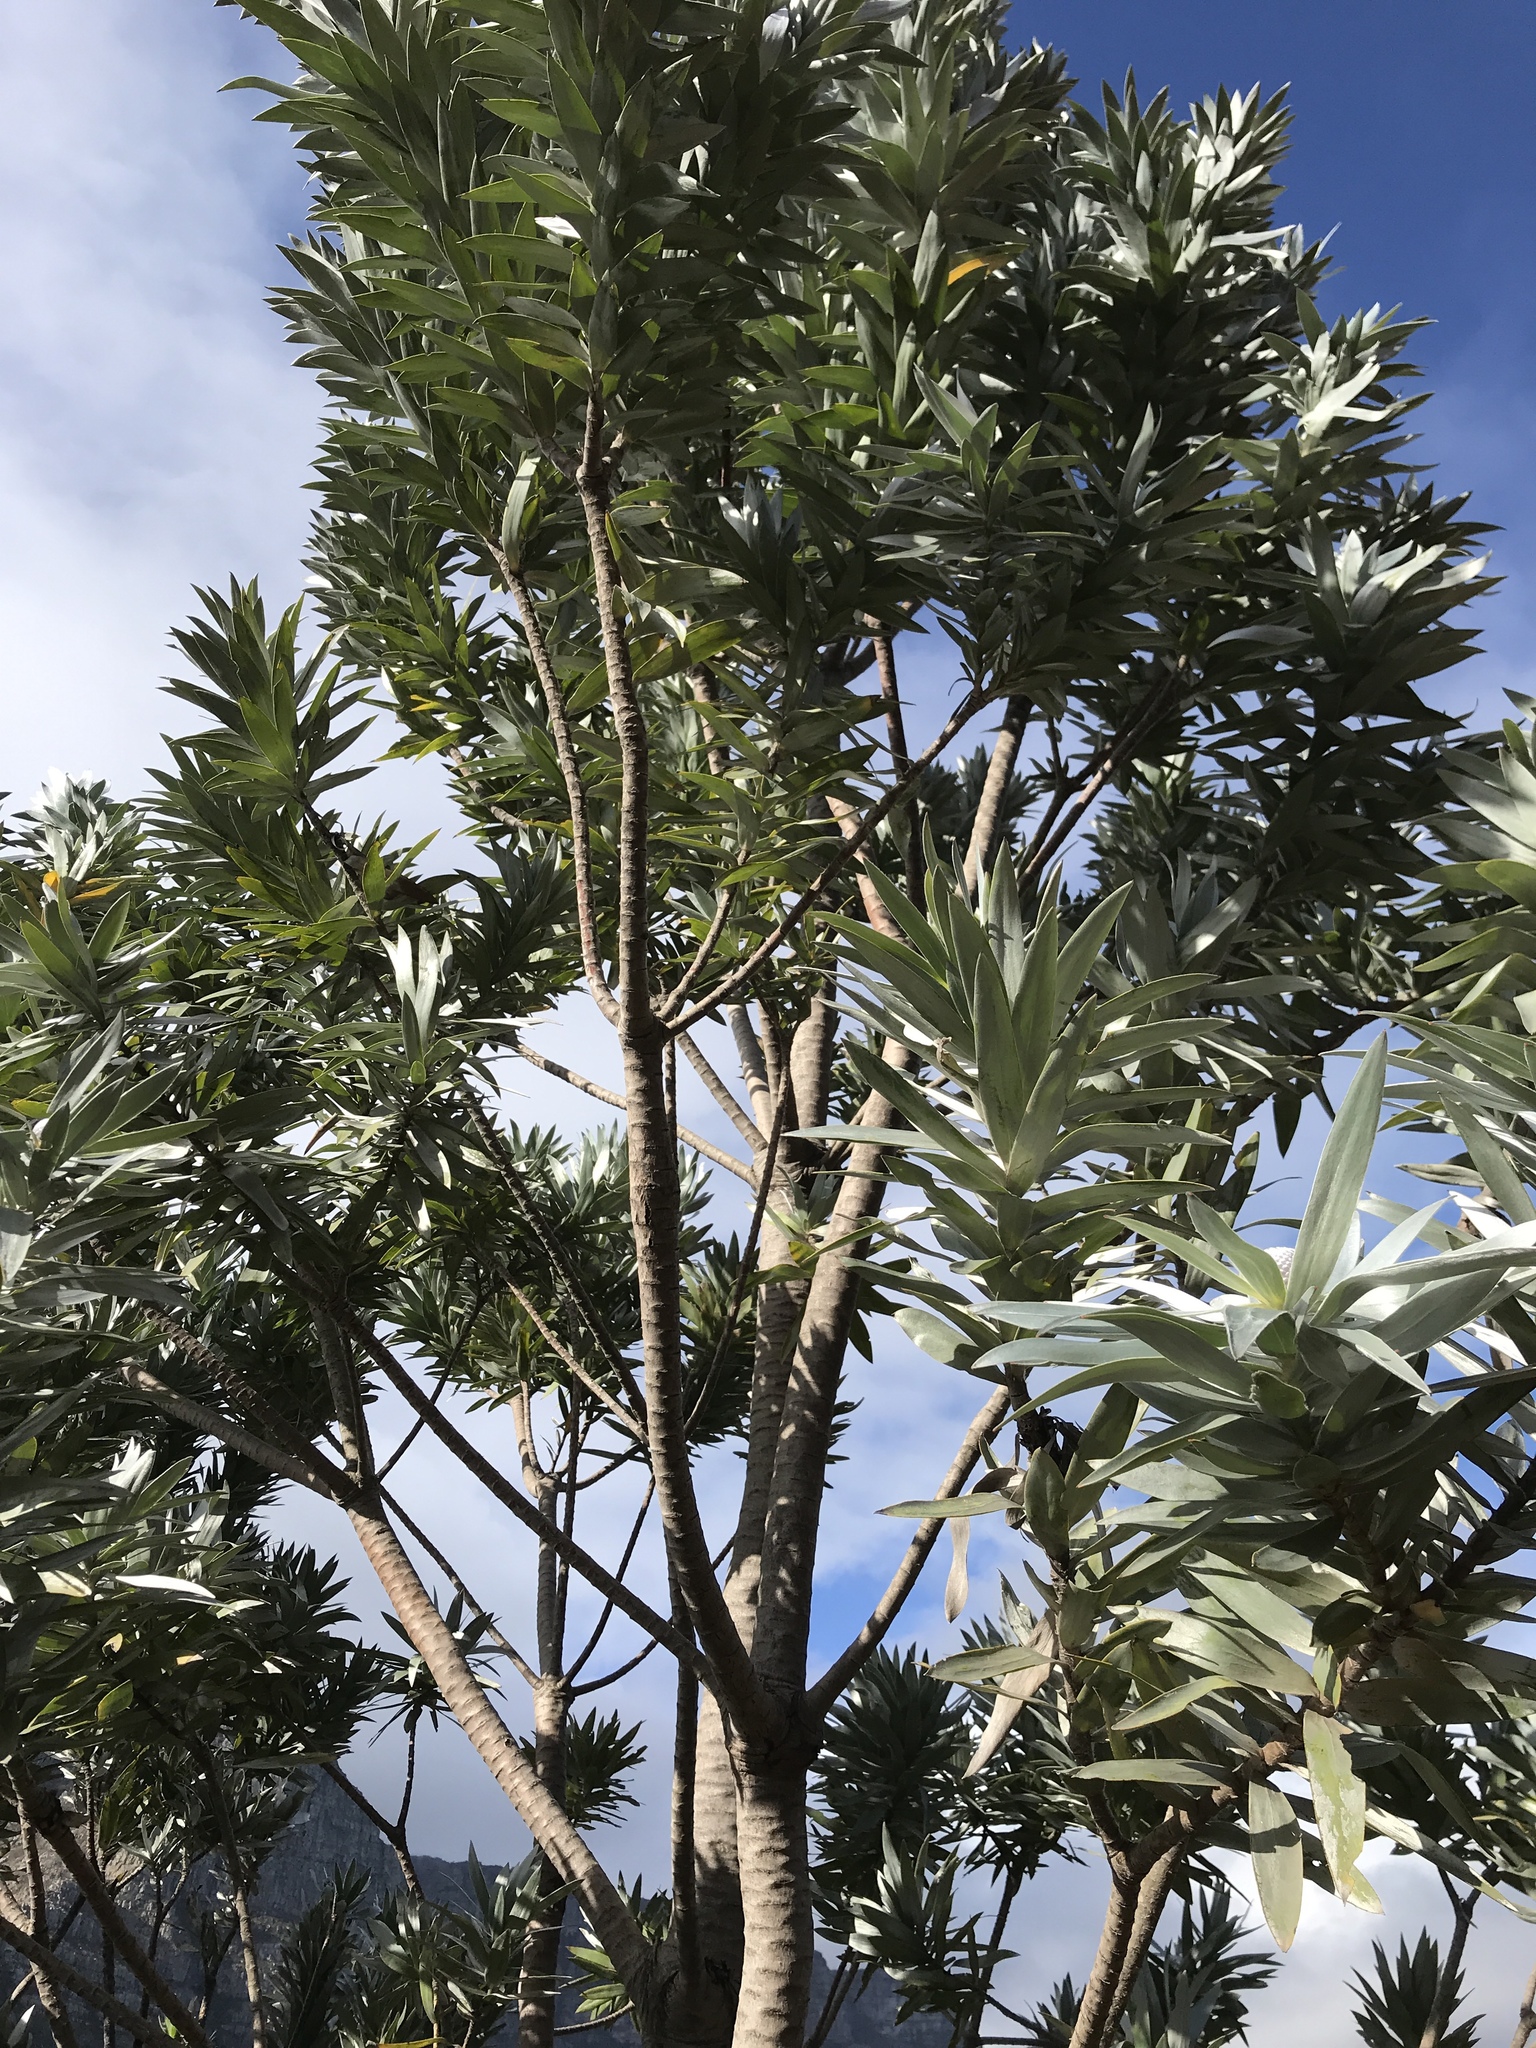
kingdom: Plantae
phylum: Tracheophyta
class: Magnoliopsida
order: Proteales
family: Proteaceae
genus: Leucadendron
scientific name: Leucadendron argenteum
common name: Cape silver tree
